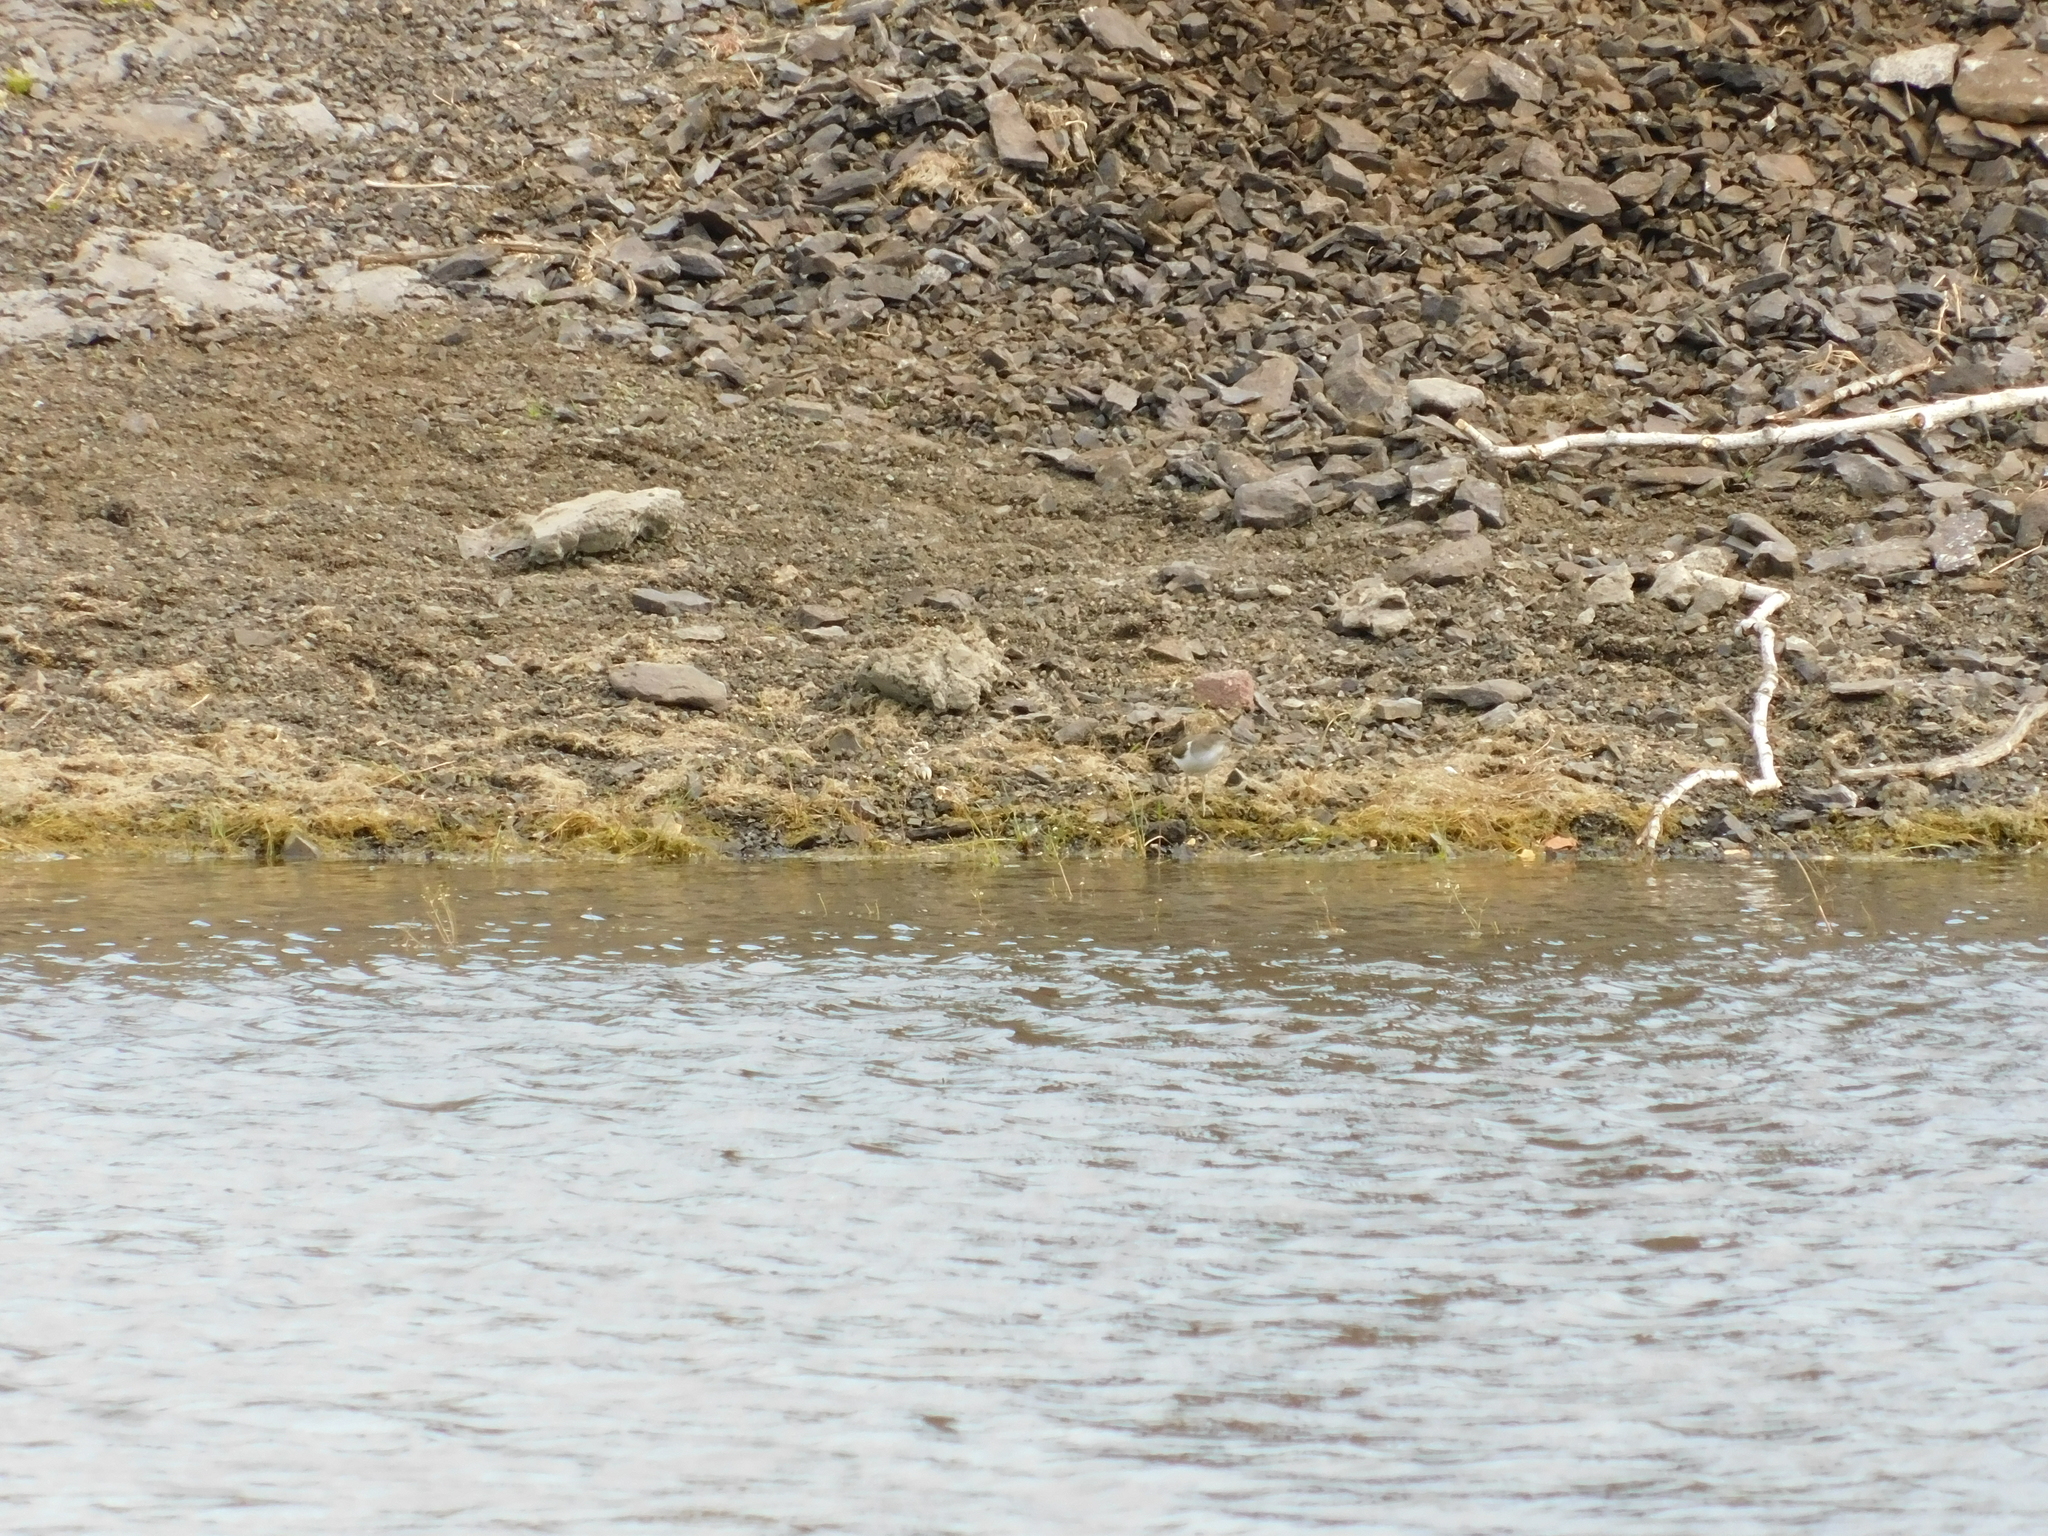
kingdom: Animalia
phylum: Chordata
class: Aves
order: Charadriiformes
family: Scolopacidae
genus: Actitis
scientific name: Actitis hypoleucos
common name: Common sandpiper
